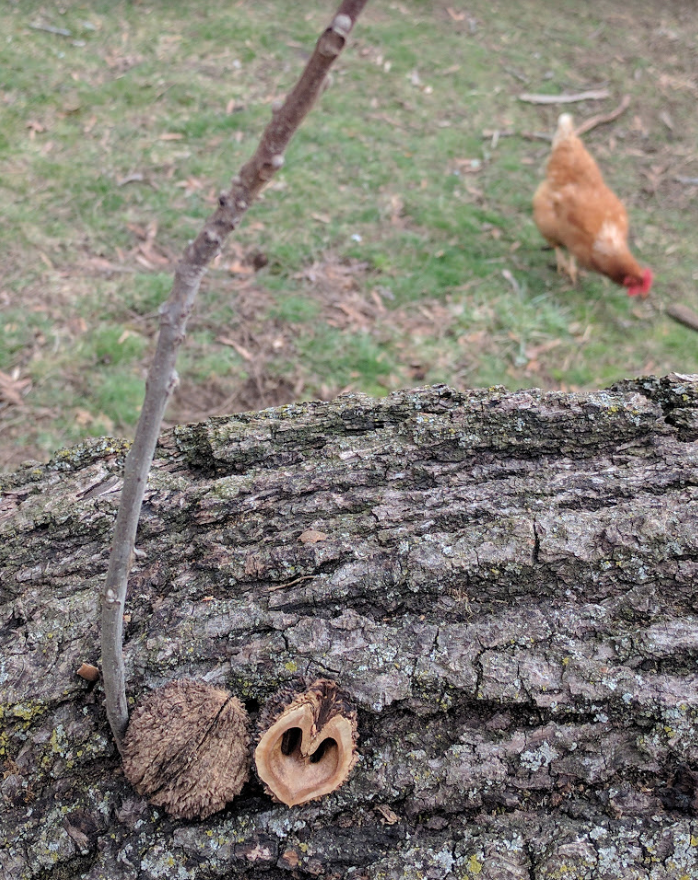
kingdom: Plantae
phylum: Tracheophyta
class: Magnoliopsida
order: Fagales
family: Juglandaceae
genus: Juglans
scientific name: Juglans nigra
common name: Black walnut
